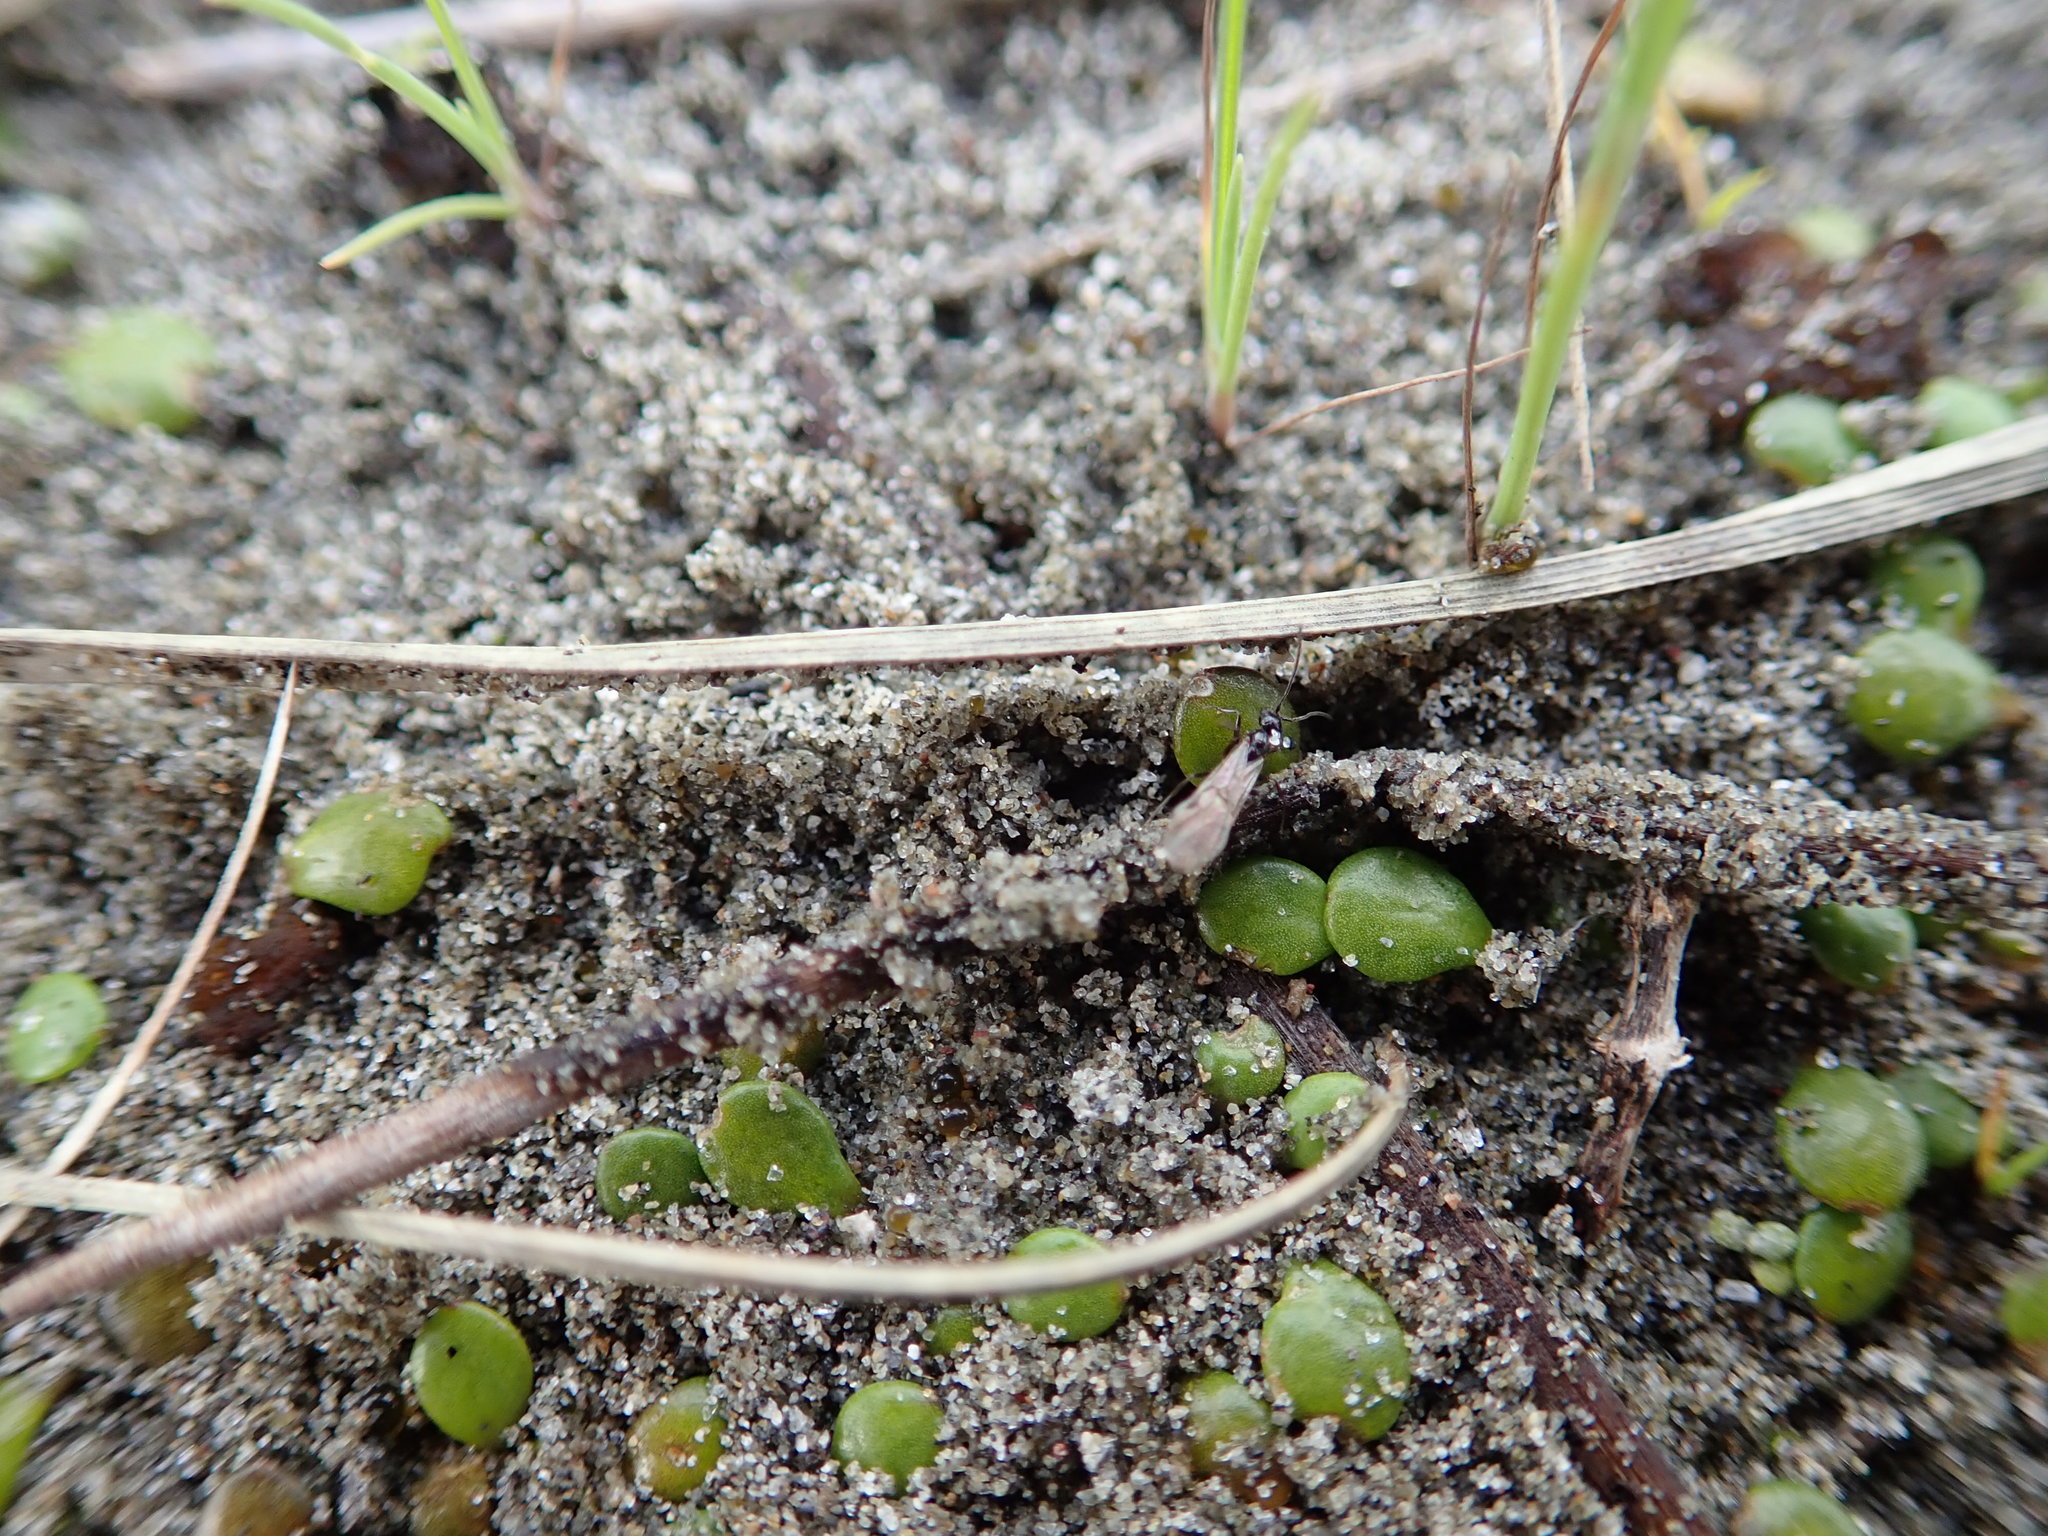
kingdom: Plantae
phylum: Tracheophyta
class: Magnoliopsida
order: Asterales
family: Goodeniaceae
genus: Goodenia
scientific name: Goodenia heenanii
